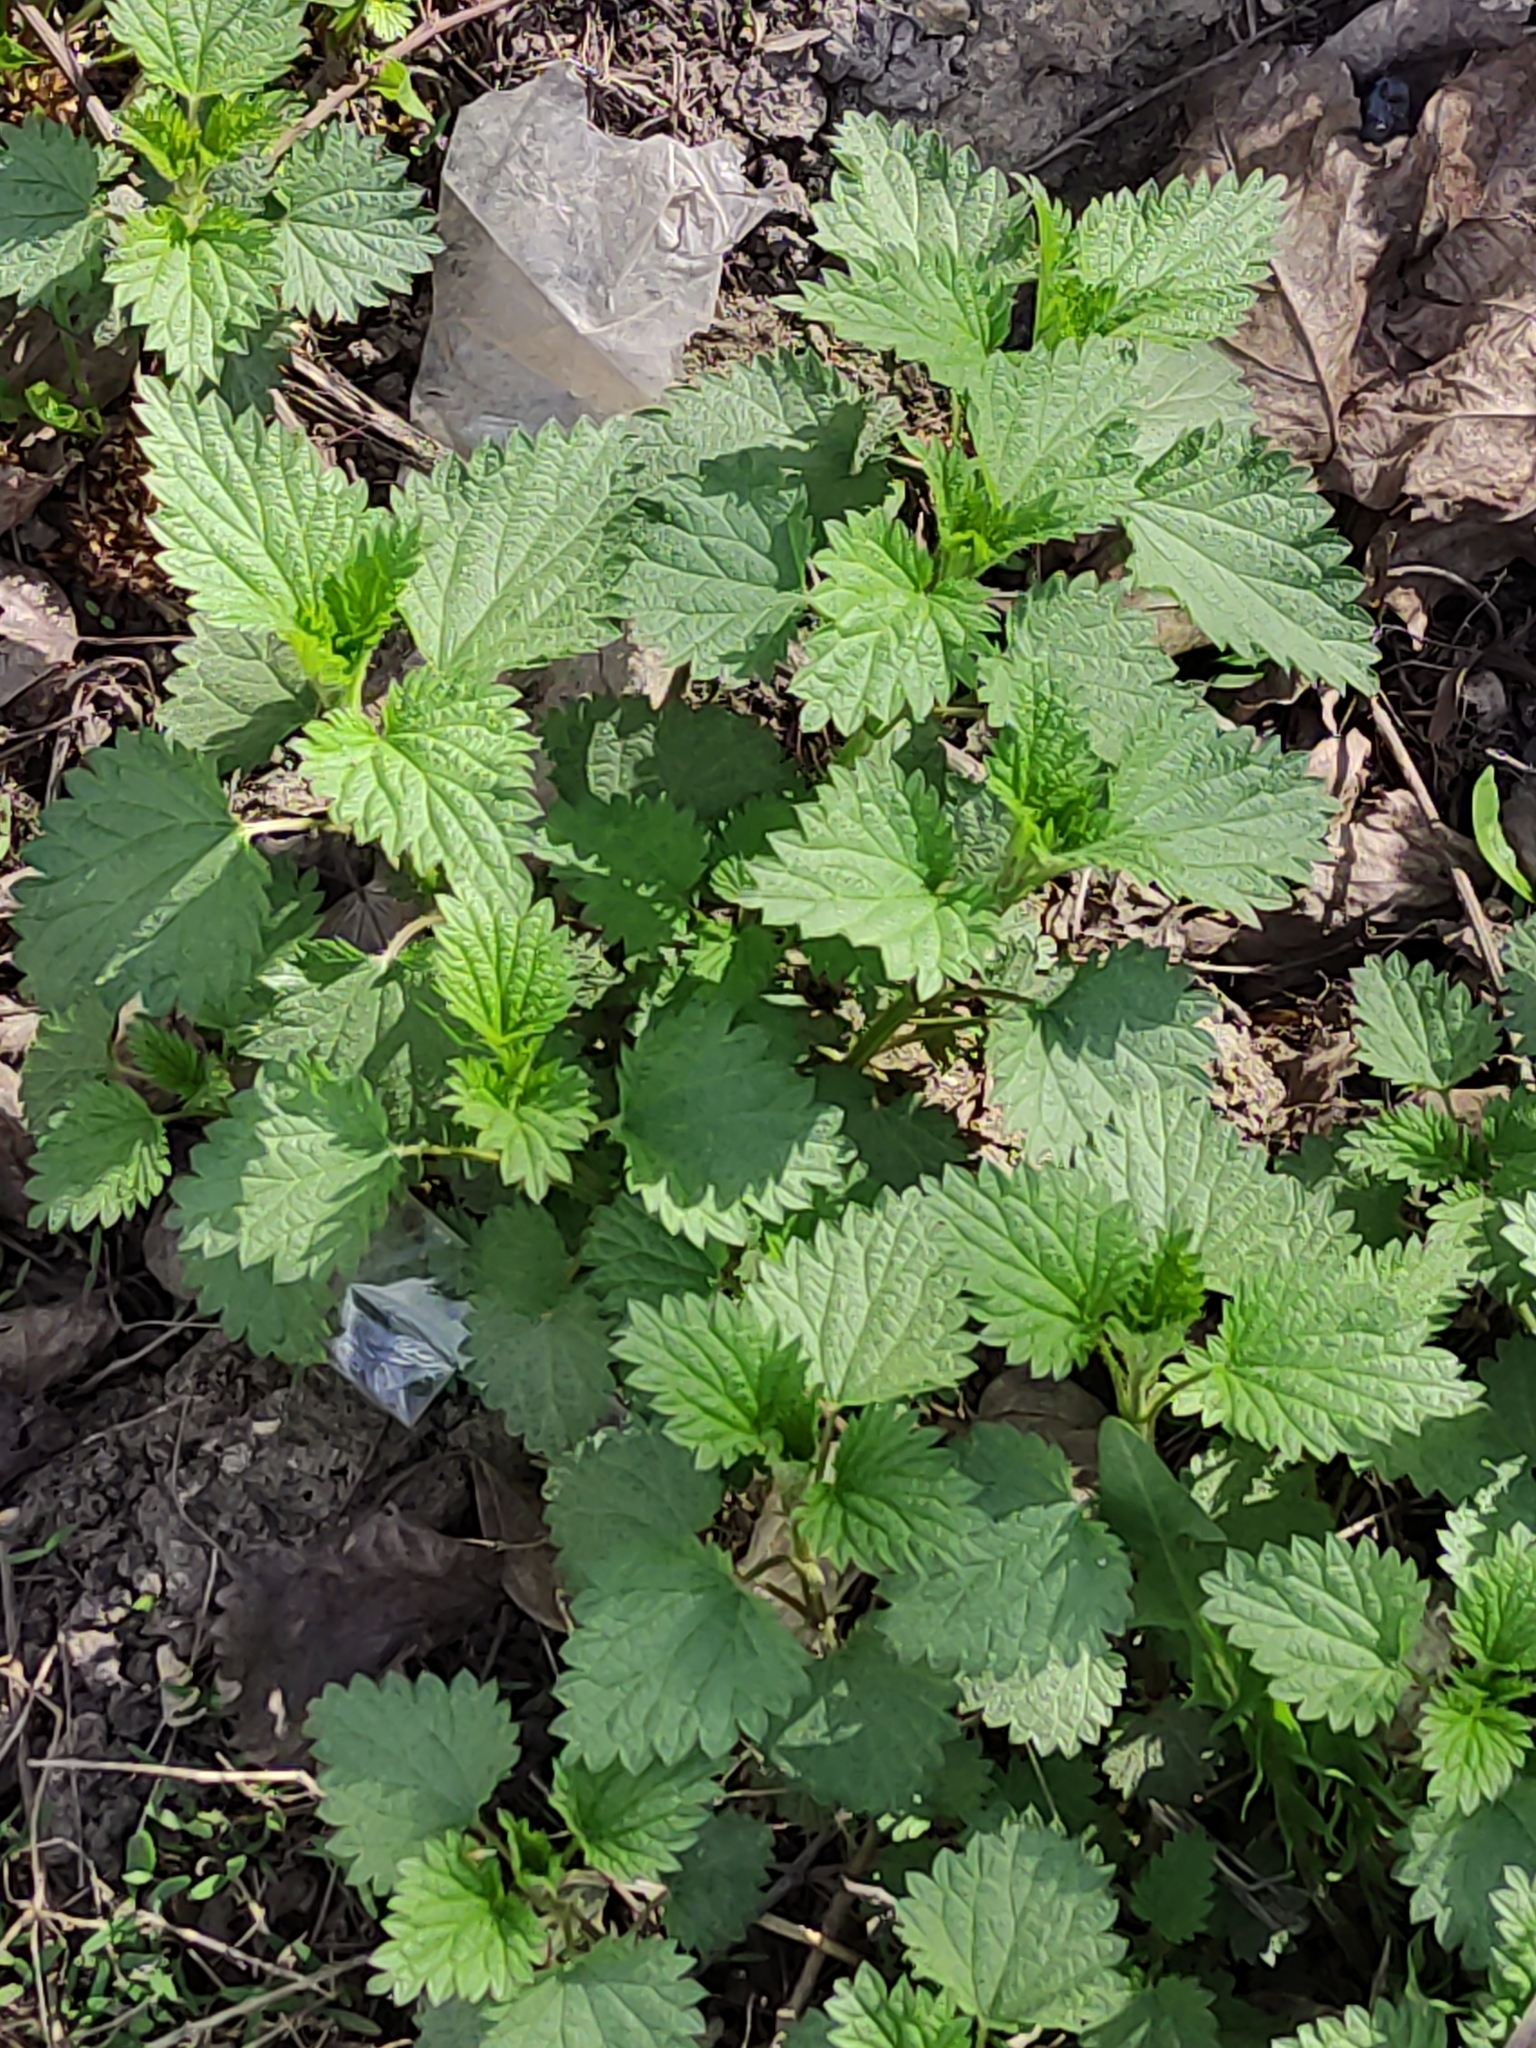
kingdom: Plantae
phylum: Tracheophyta
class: Magnoliopsida
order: Rosales
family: Urticaceae
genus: Urtica
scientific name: Urtica dioica
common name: Common nettle
